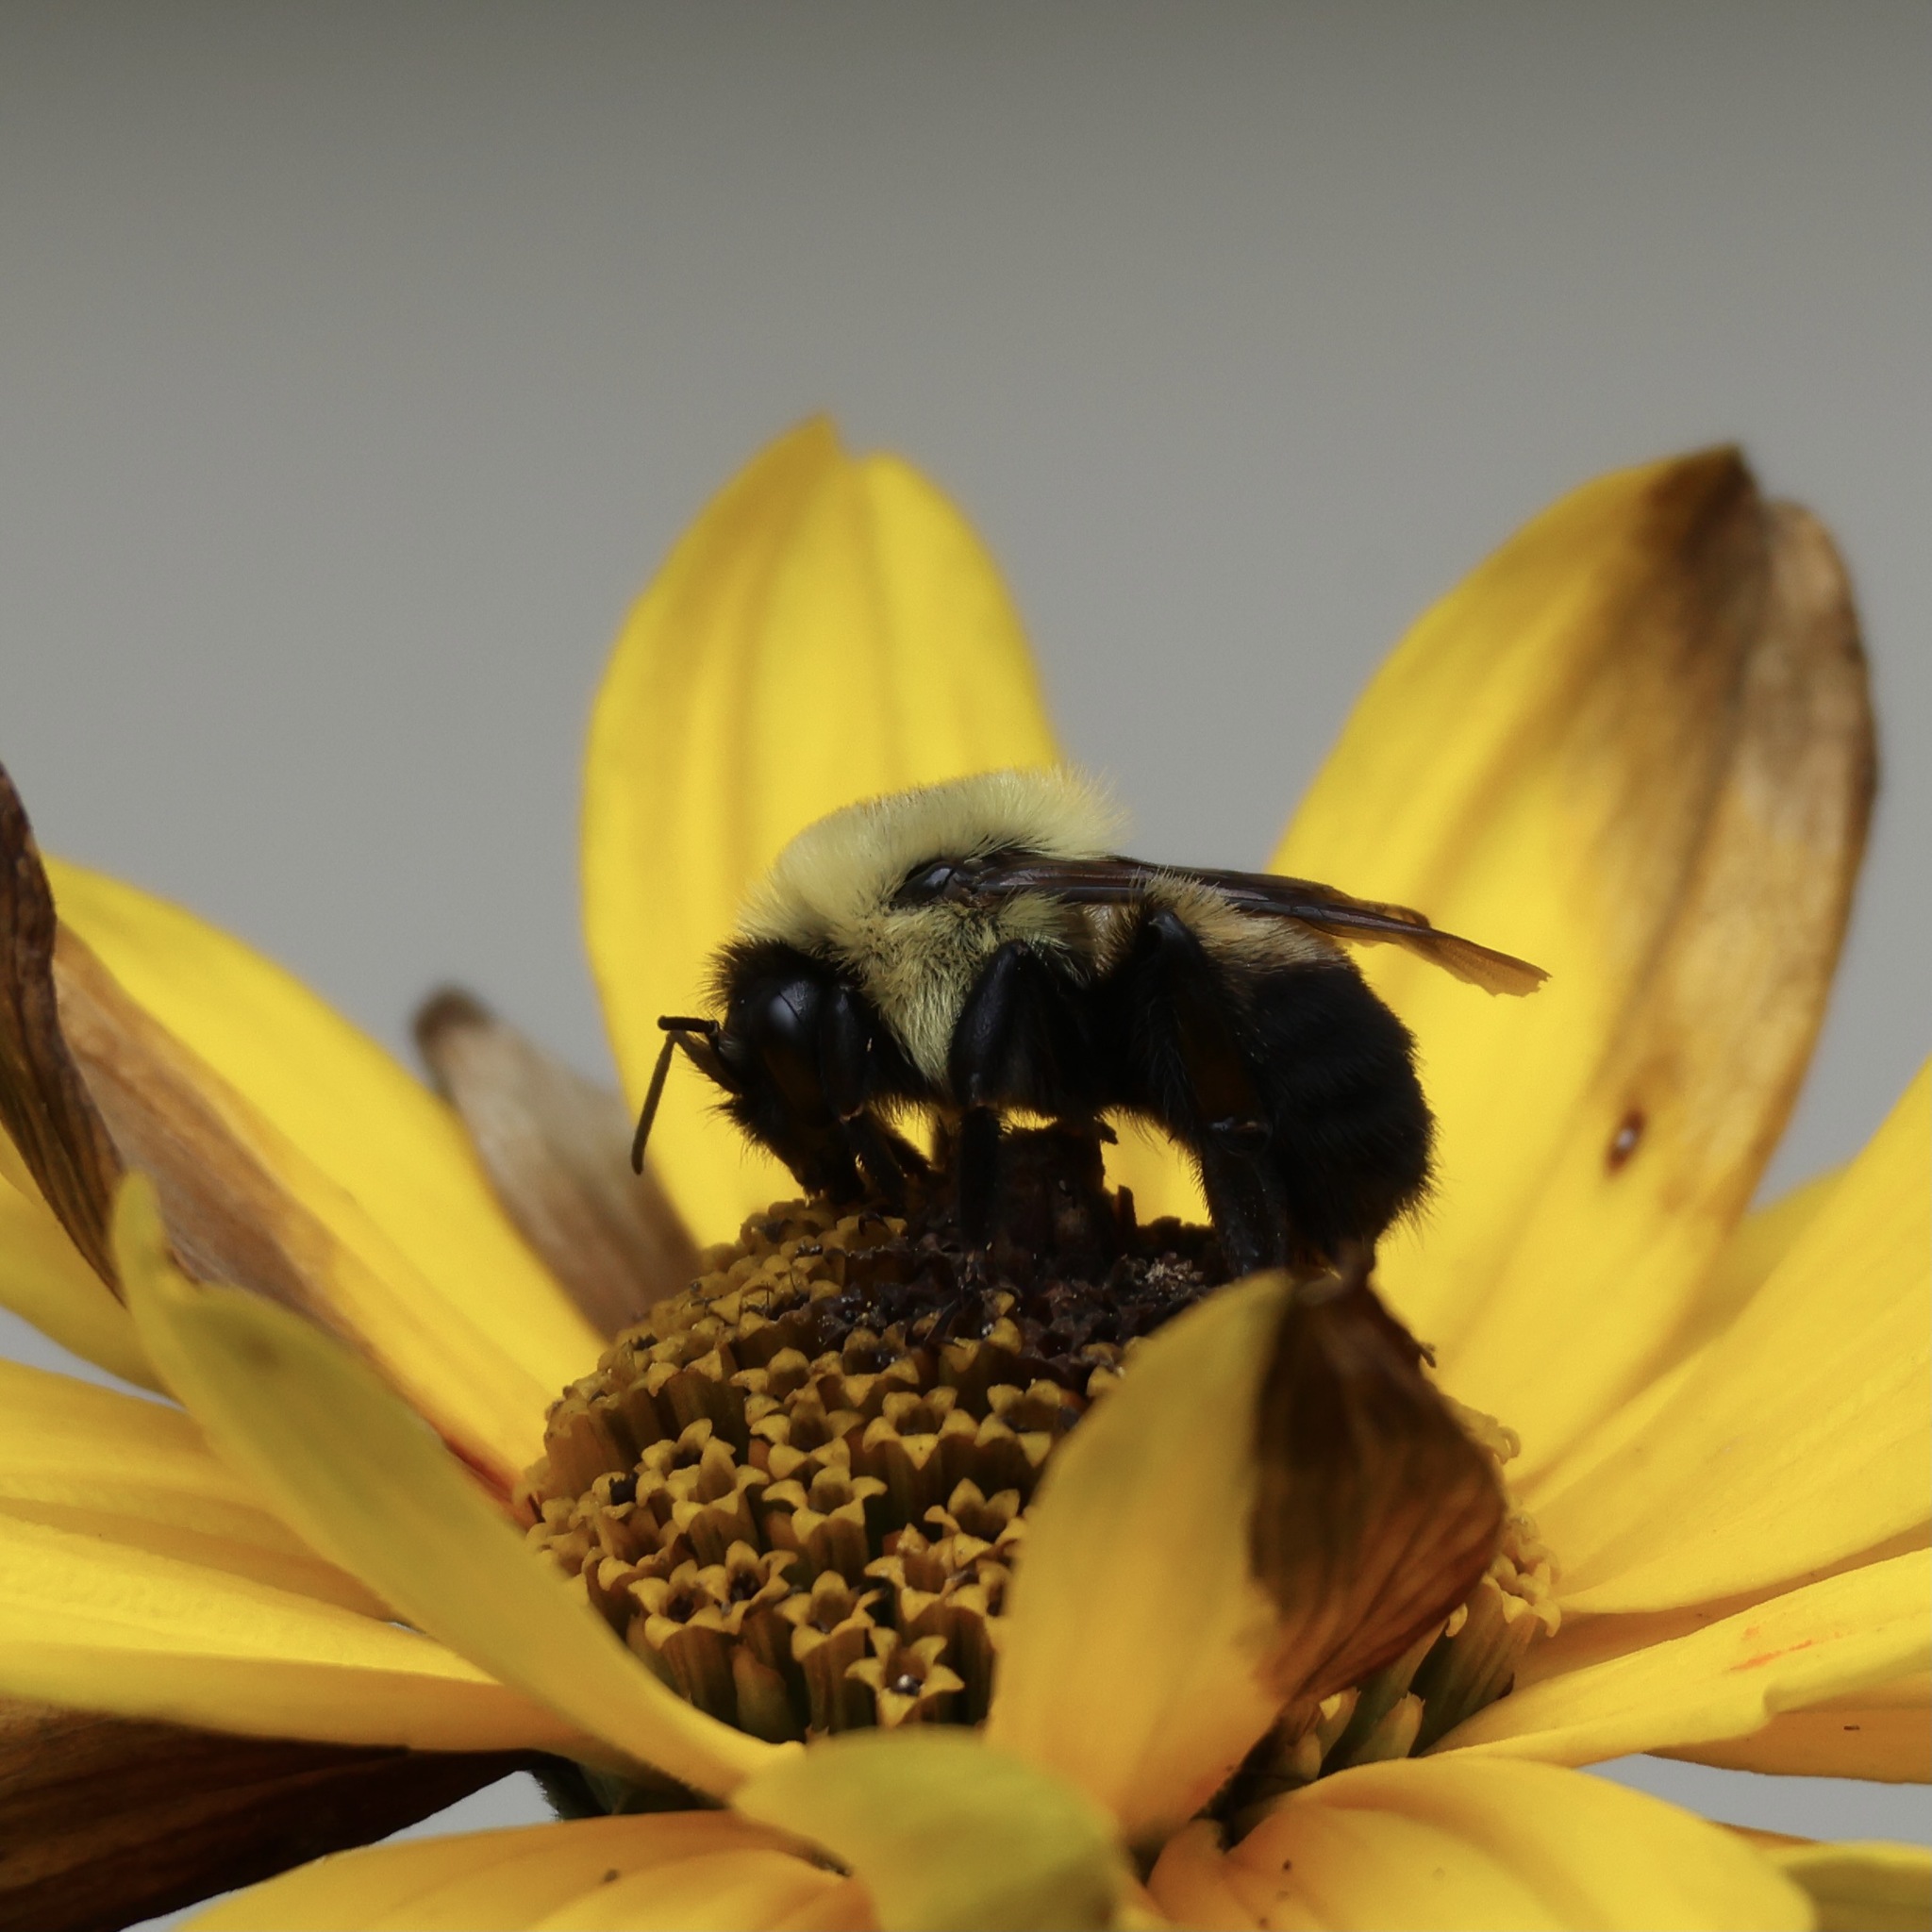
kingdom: Animalia
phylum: Arthropoda
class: Insecta
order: Hymenoptera
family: Apidae
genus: Bombus
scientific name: Bombus griseocollis
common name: Brown-belted bumble bee
